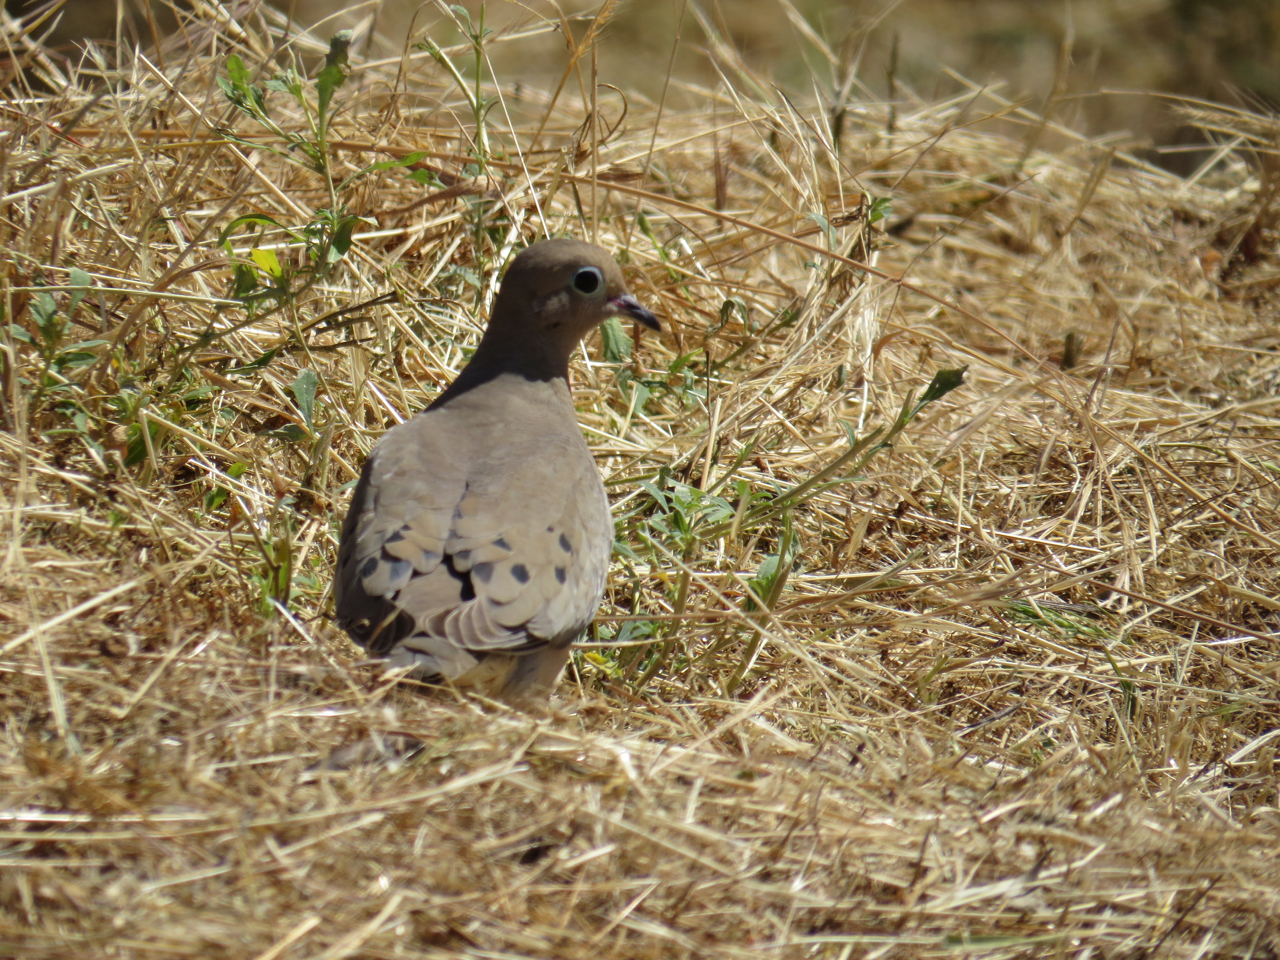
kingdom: Animalia
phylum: Chordata
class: Aves
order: Columbiformes
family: Columbidae
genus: Zenaida
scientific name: Zenaida macroura
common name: Mourning dove
